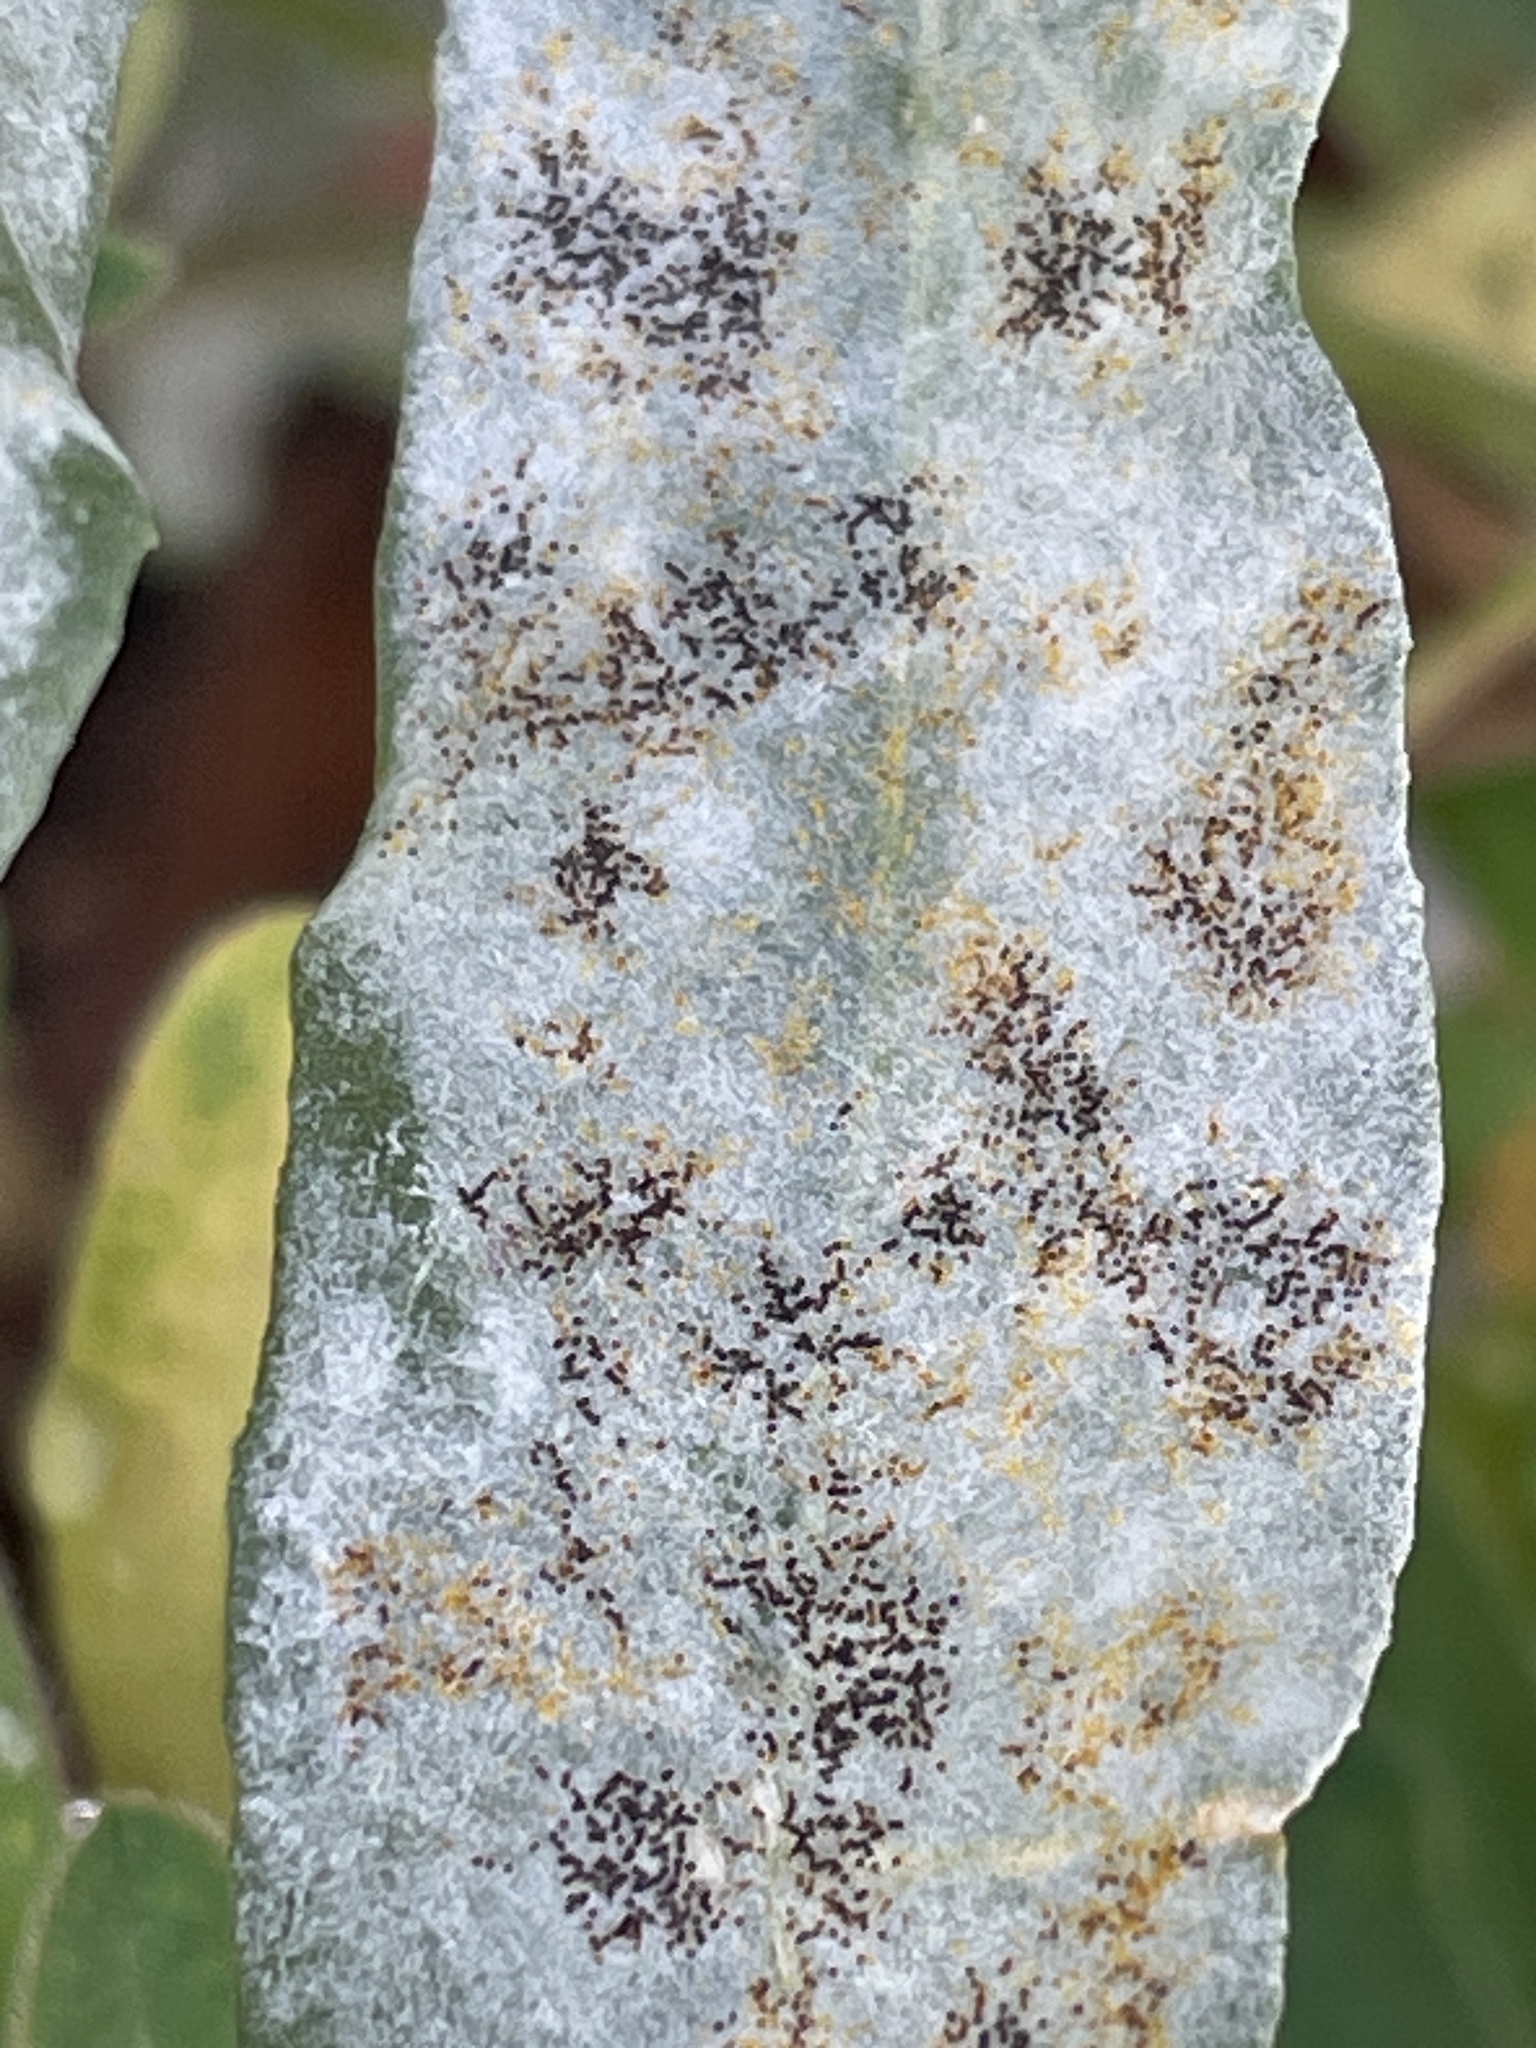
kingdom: Fungi
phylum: Ascomycota
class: Leotiomycetes
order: Helotiales
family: Erysiphaceae
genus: Erysiphe
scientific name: Erysiphe convolvuli
